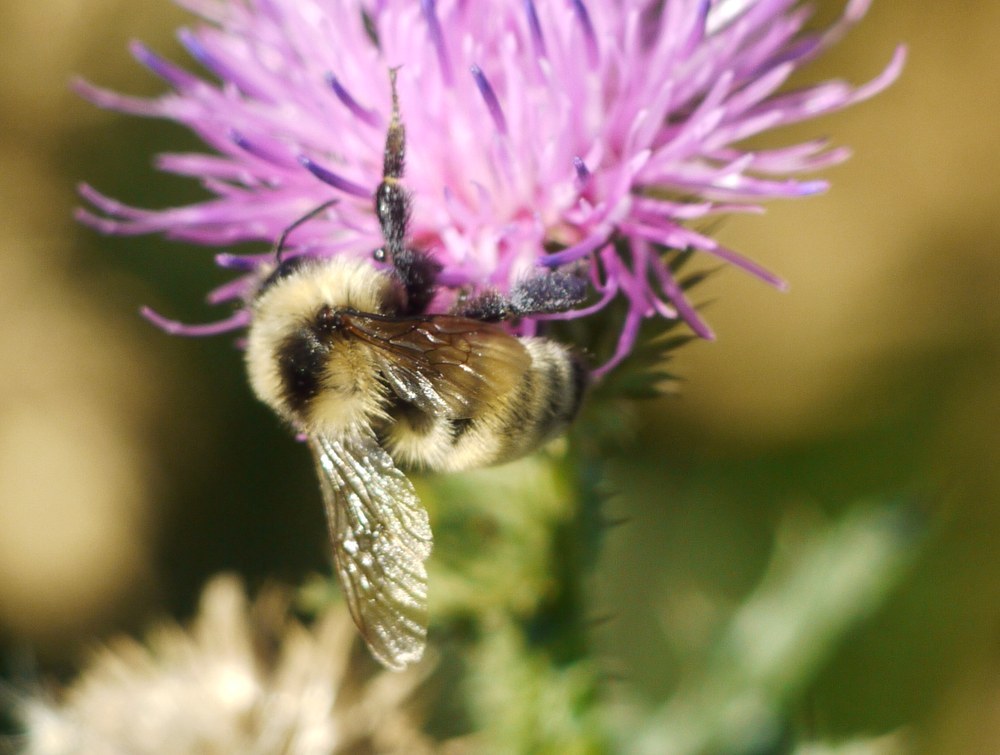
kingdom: Animalia
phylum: Arthropoda
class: Insecta
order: Hymenoptera
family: Apidae
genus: Bombus
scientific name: Bombus zonatus
